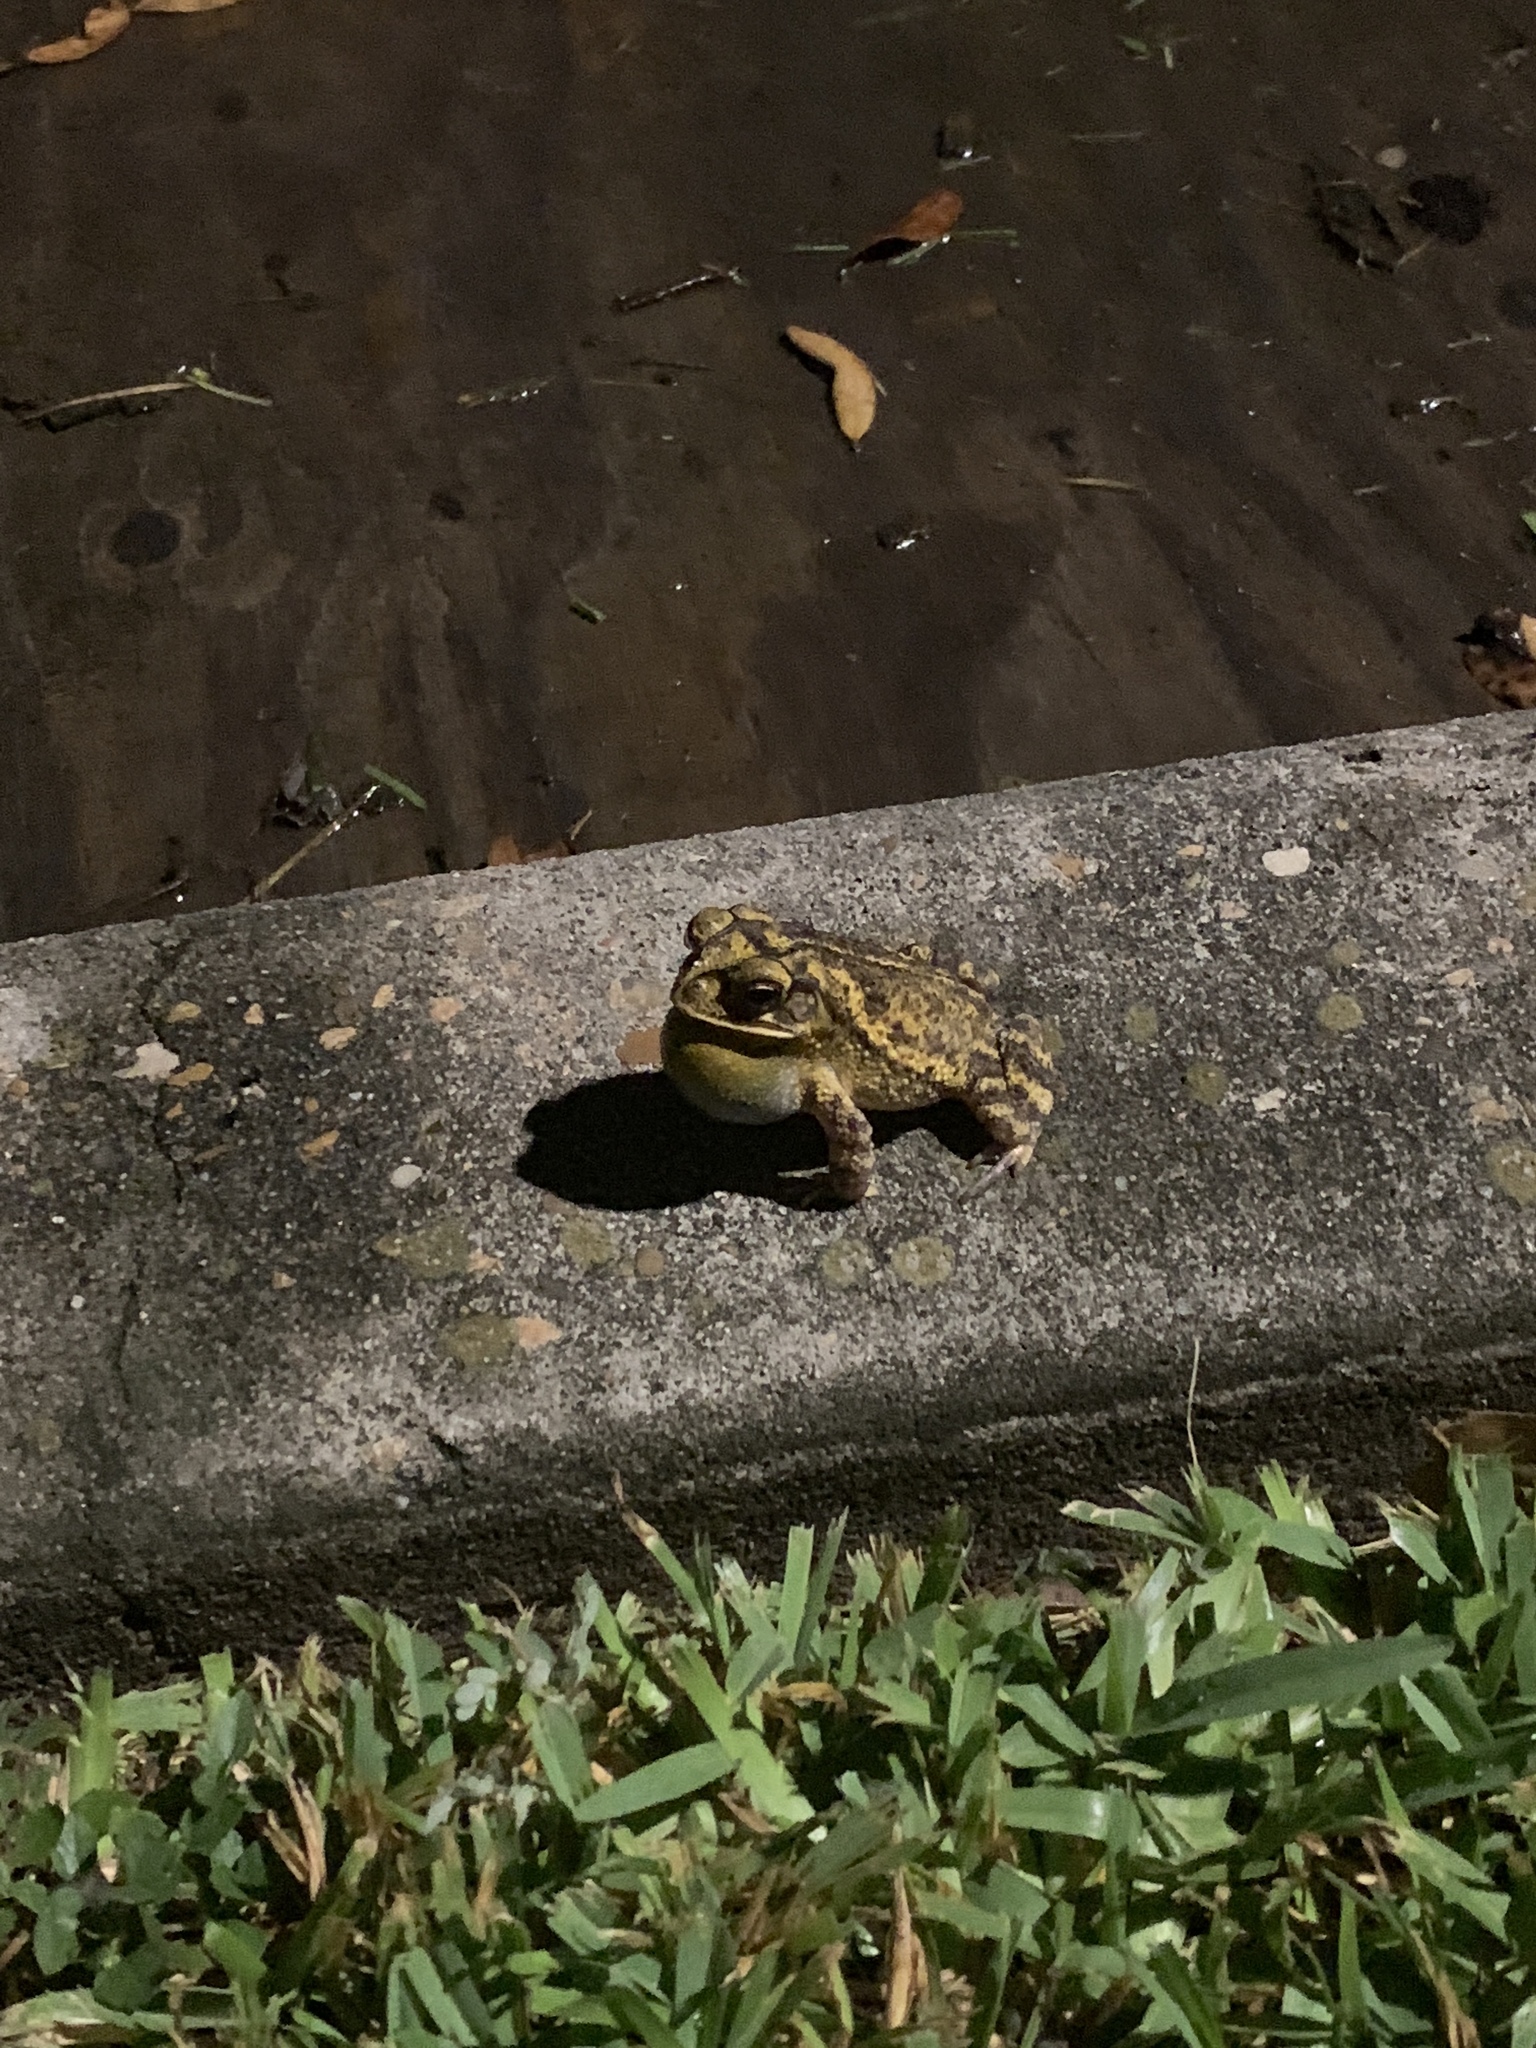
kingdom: Animalia
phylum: Chordata
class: Amphibia
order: Anura
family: Bufonidae
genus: Incilius
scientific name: Incilius nebulifer
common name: Gulf coast toad
